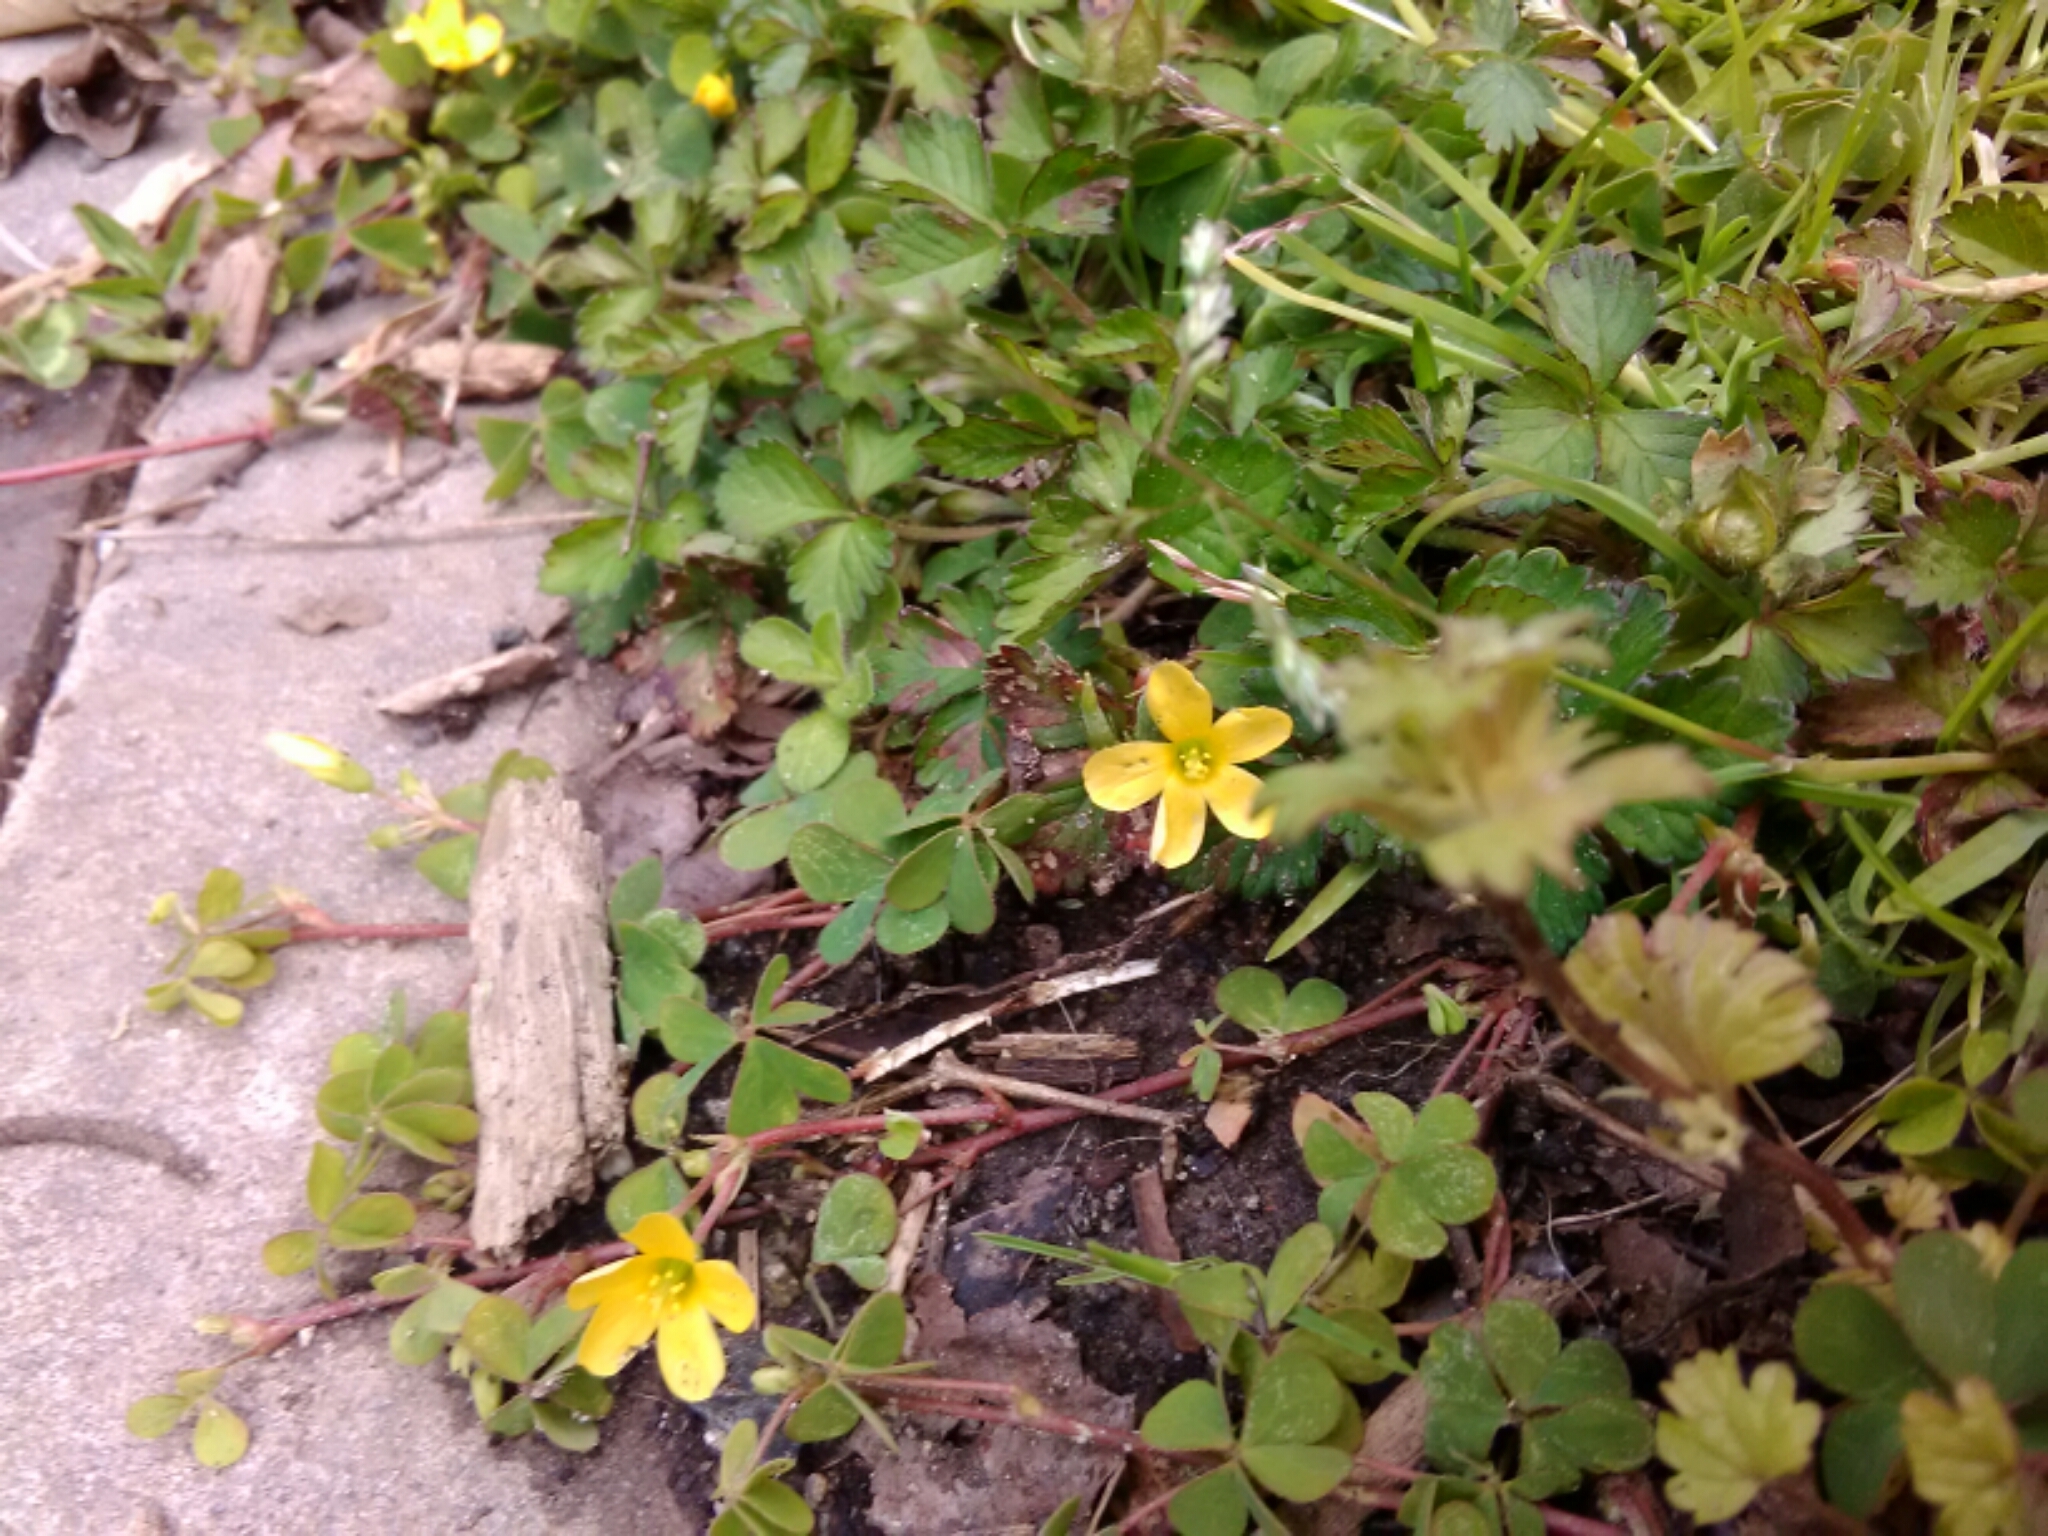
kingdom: Plantae
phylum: Tracheophyta
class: Magnoliopsida
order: Oxalidales
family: Oxalidaceae
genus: Oxalis
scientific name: Oxalis corniculata
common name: Procumbent yellow-sorrel
